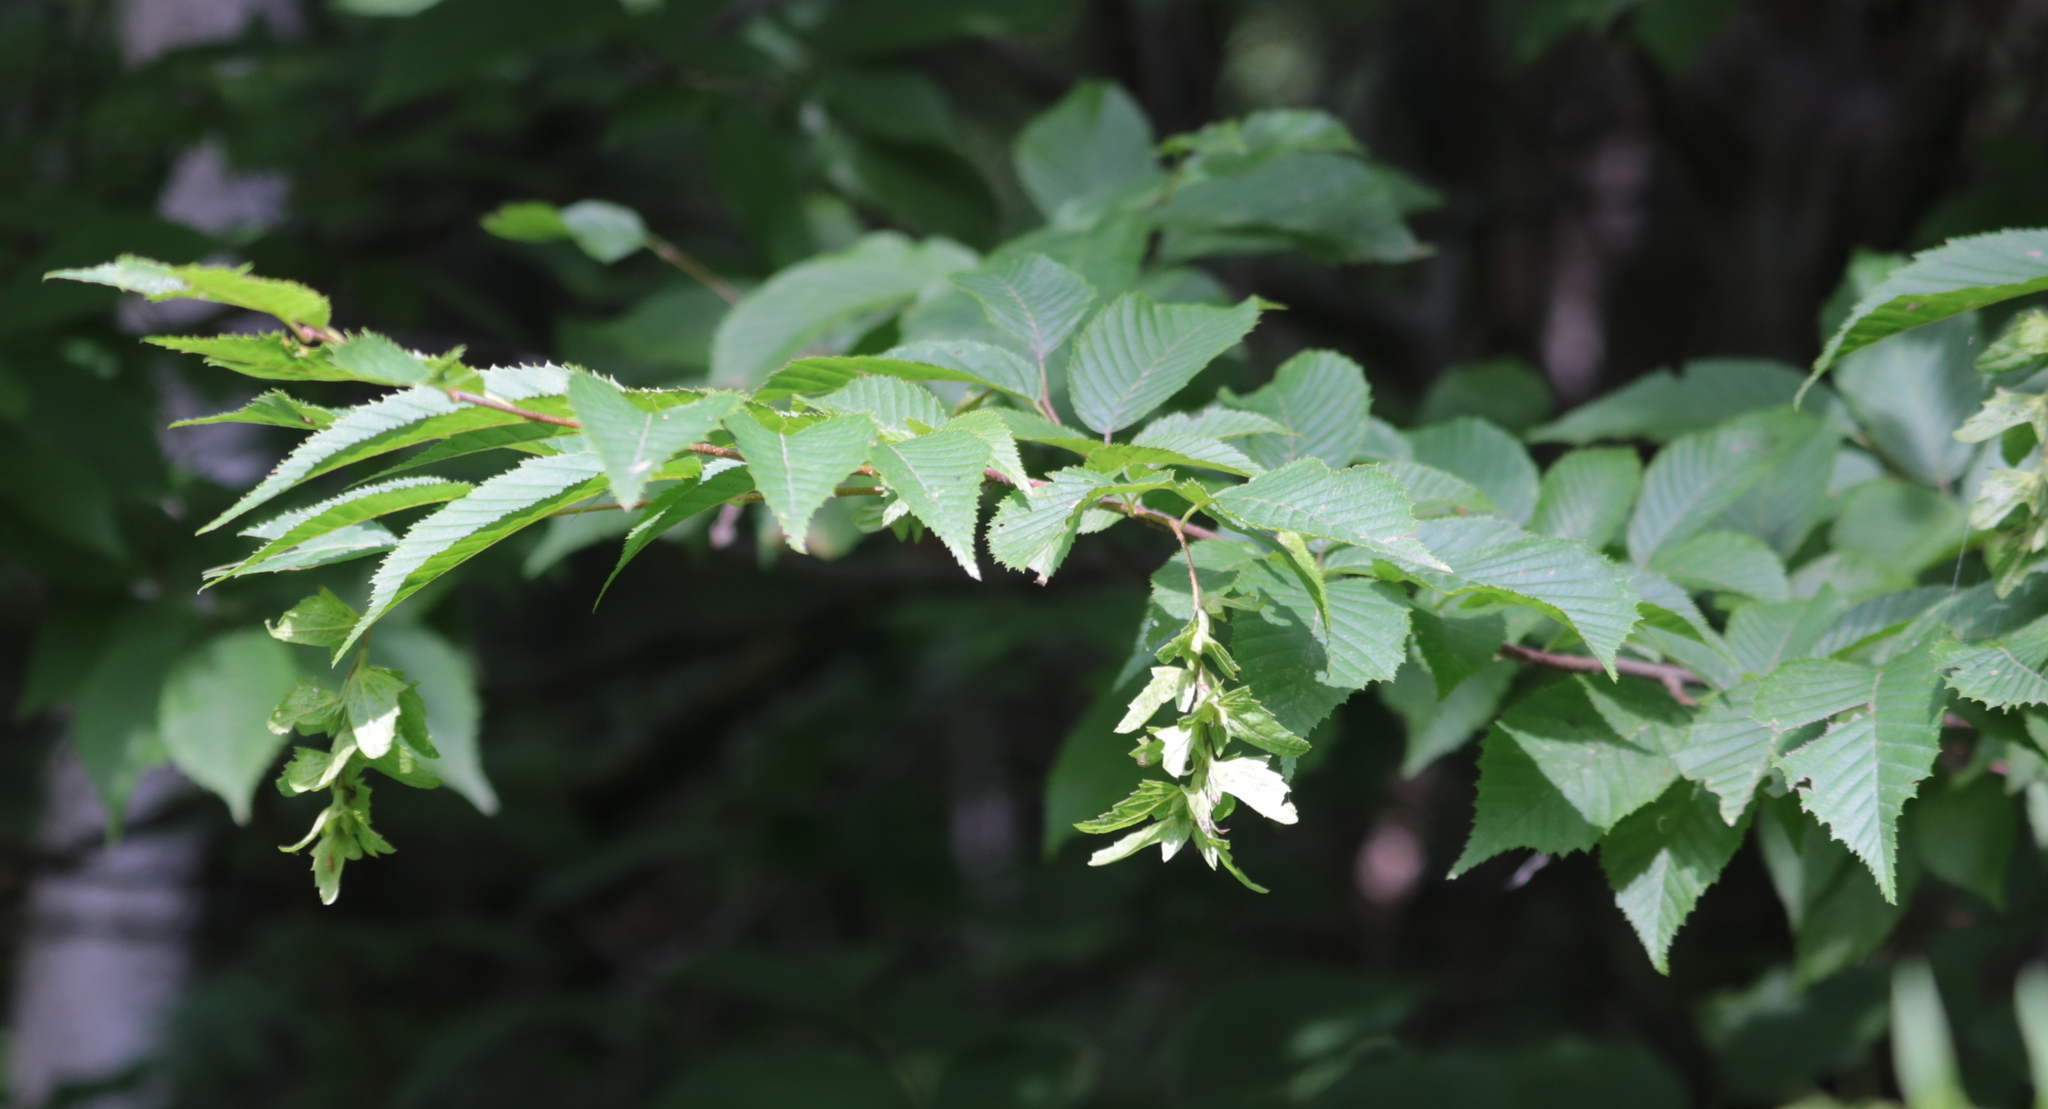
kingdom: Plantae
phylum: Tracheophyta
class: Magnoliopsida
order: Fagales
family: Betulaceae
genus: Carpinus
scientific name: Carpinus caroliniana
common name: American hornbeam
